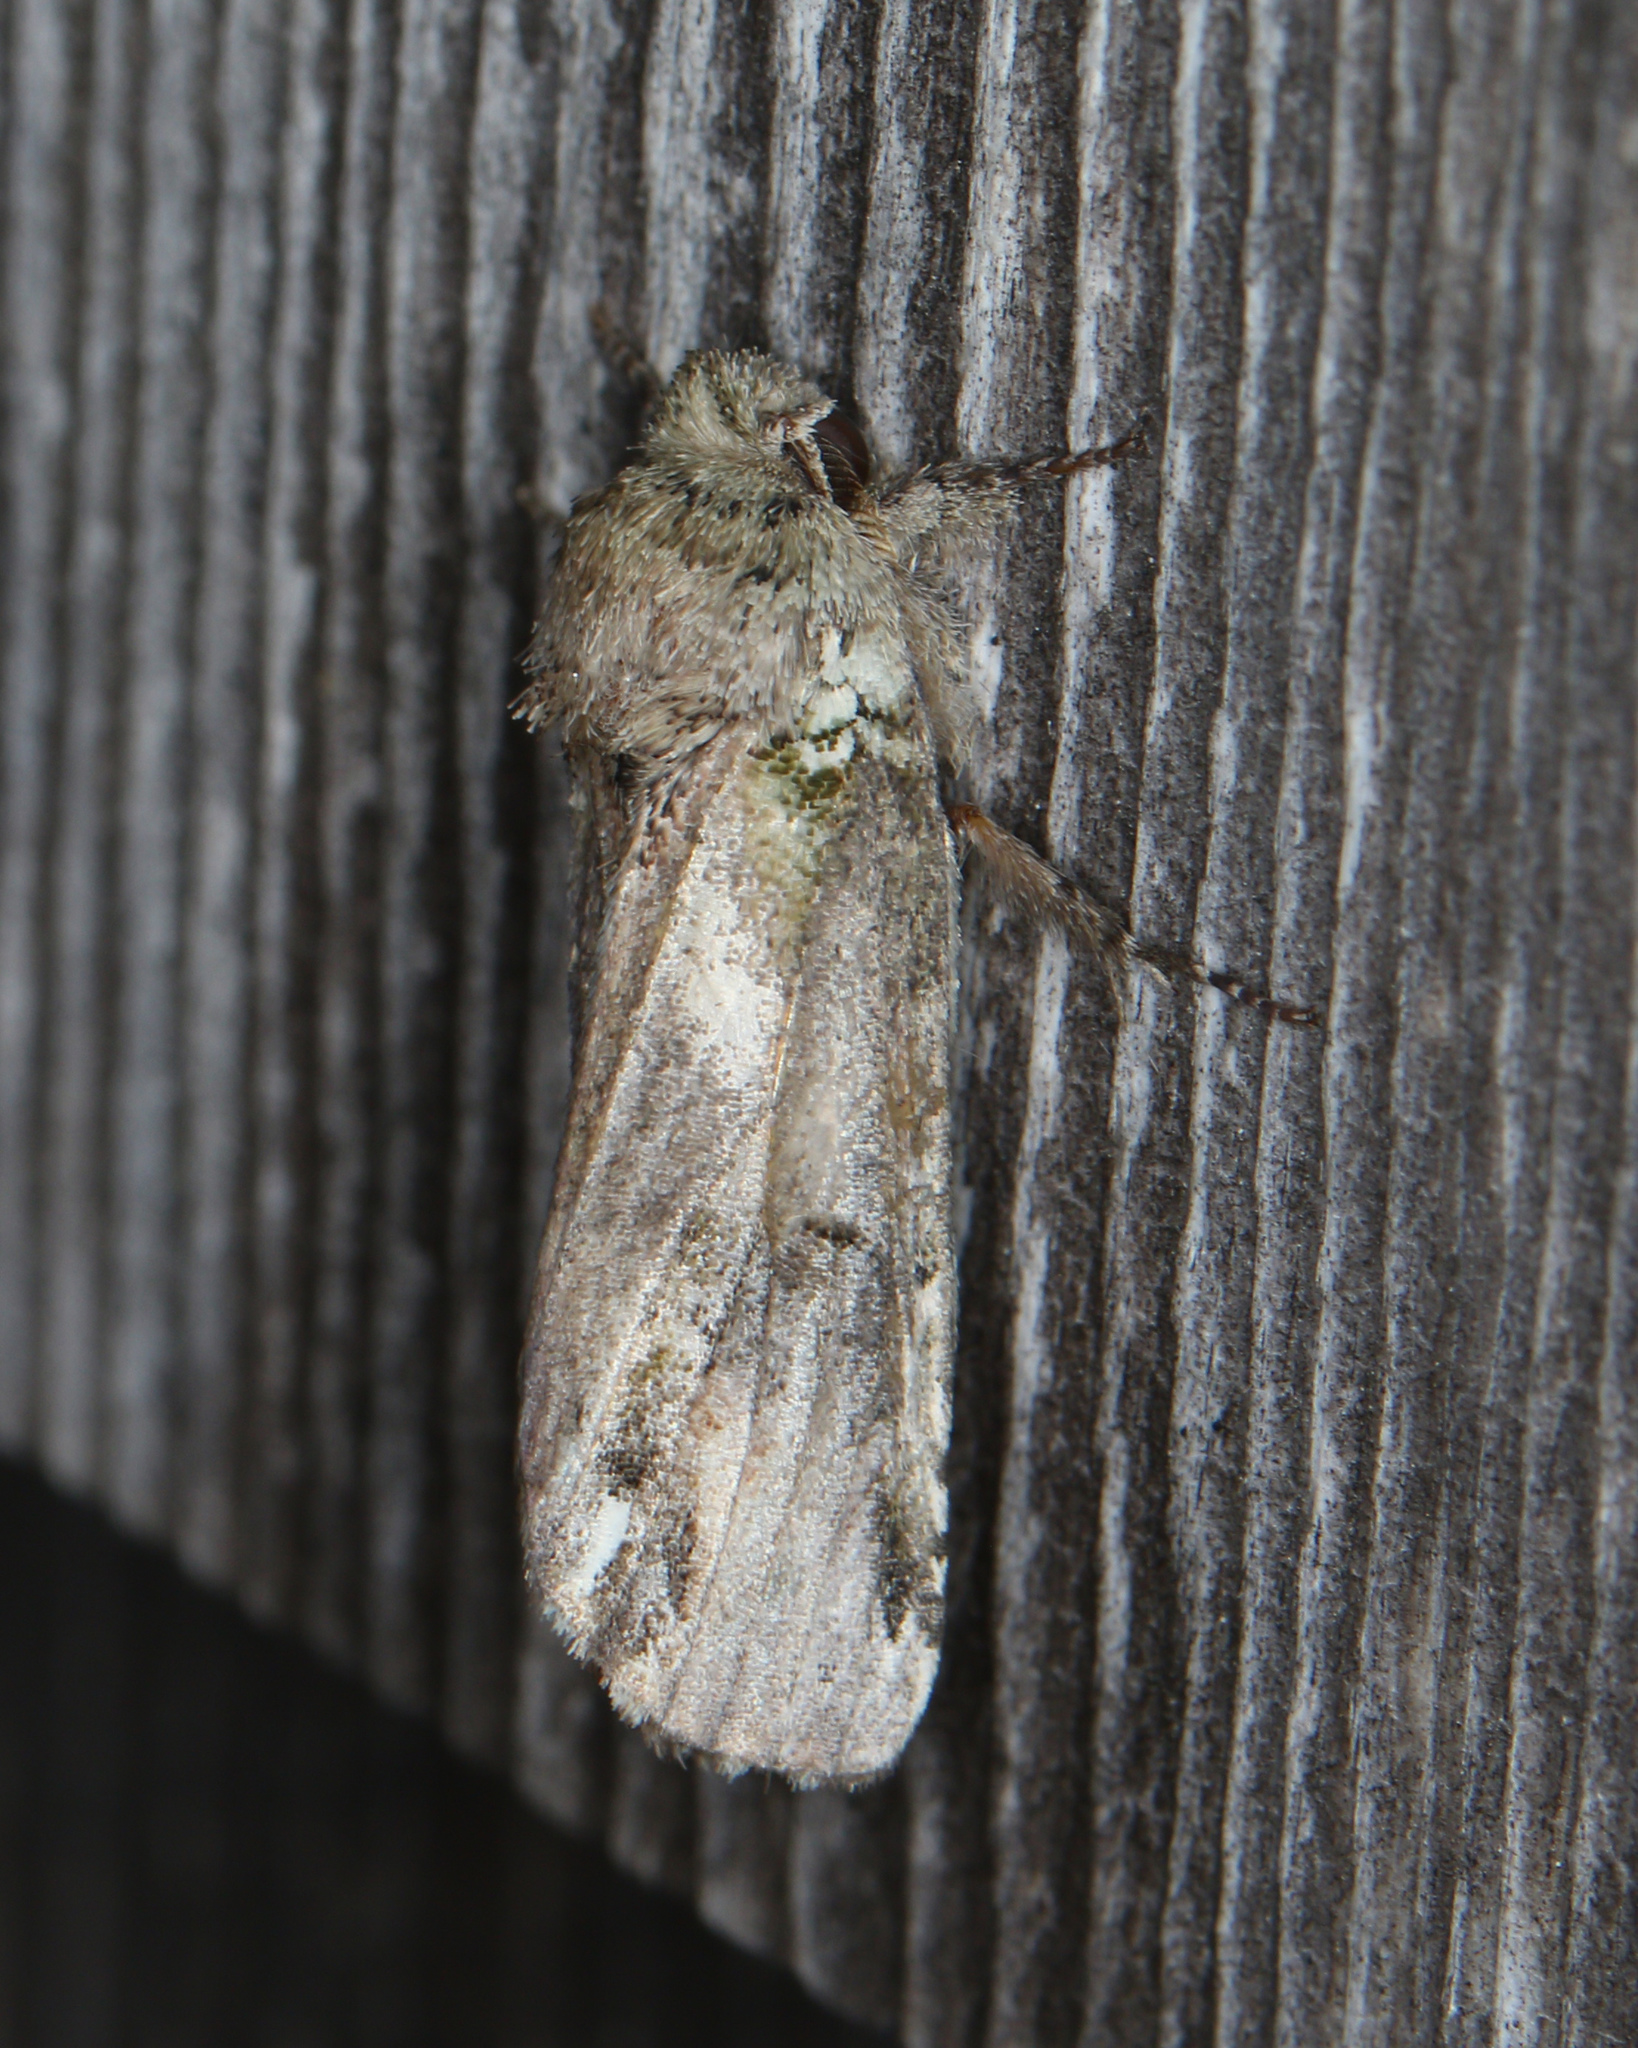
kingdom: Animalia
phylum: Arthropoda
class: Insecta
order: Lepidoptera
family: Notodontidae
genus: Schizura
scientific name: Schizura
